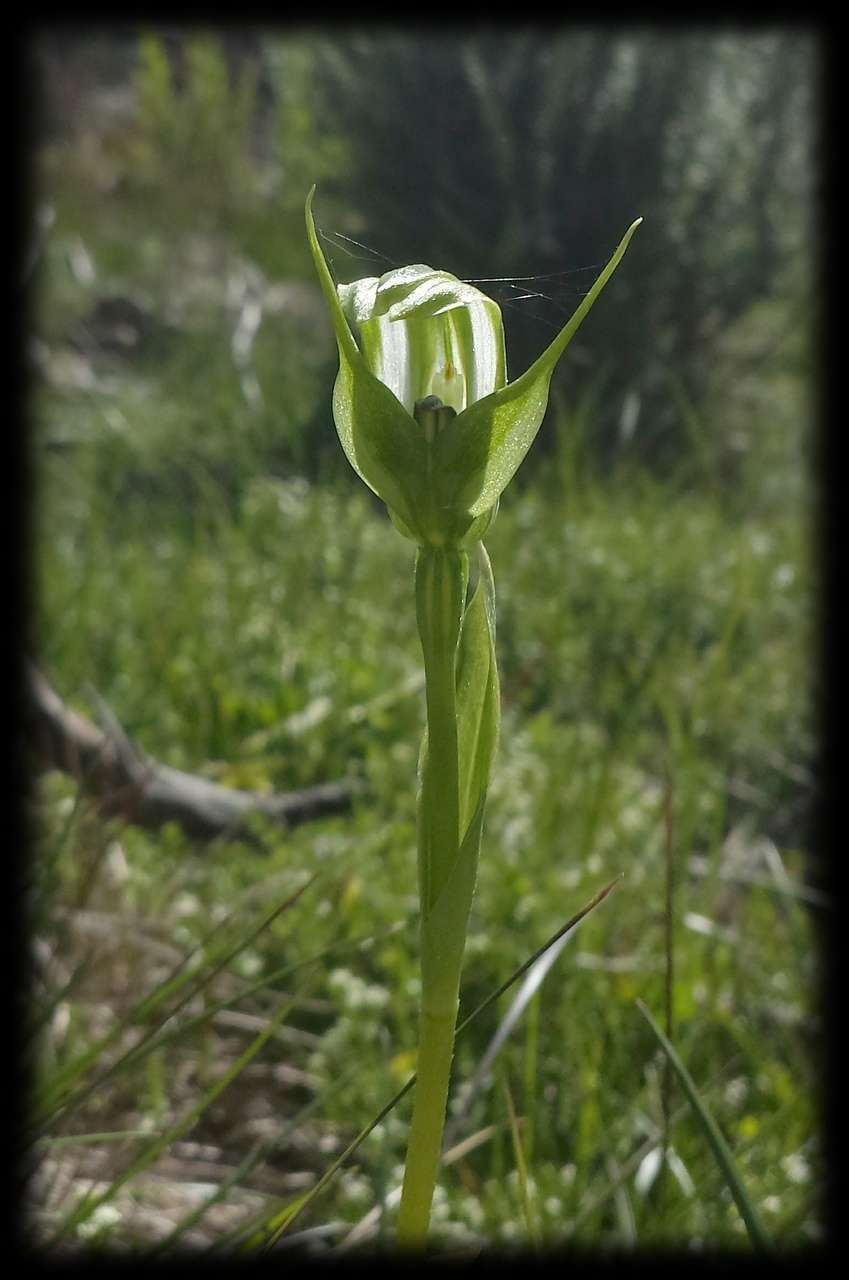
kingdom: Plantae
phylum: Tracheophyta
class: Liliopsida
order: Asparagales
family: Orchidaceae
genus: Pterostylis
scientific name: Pterostylis monticola
